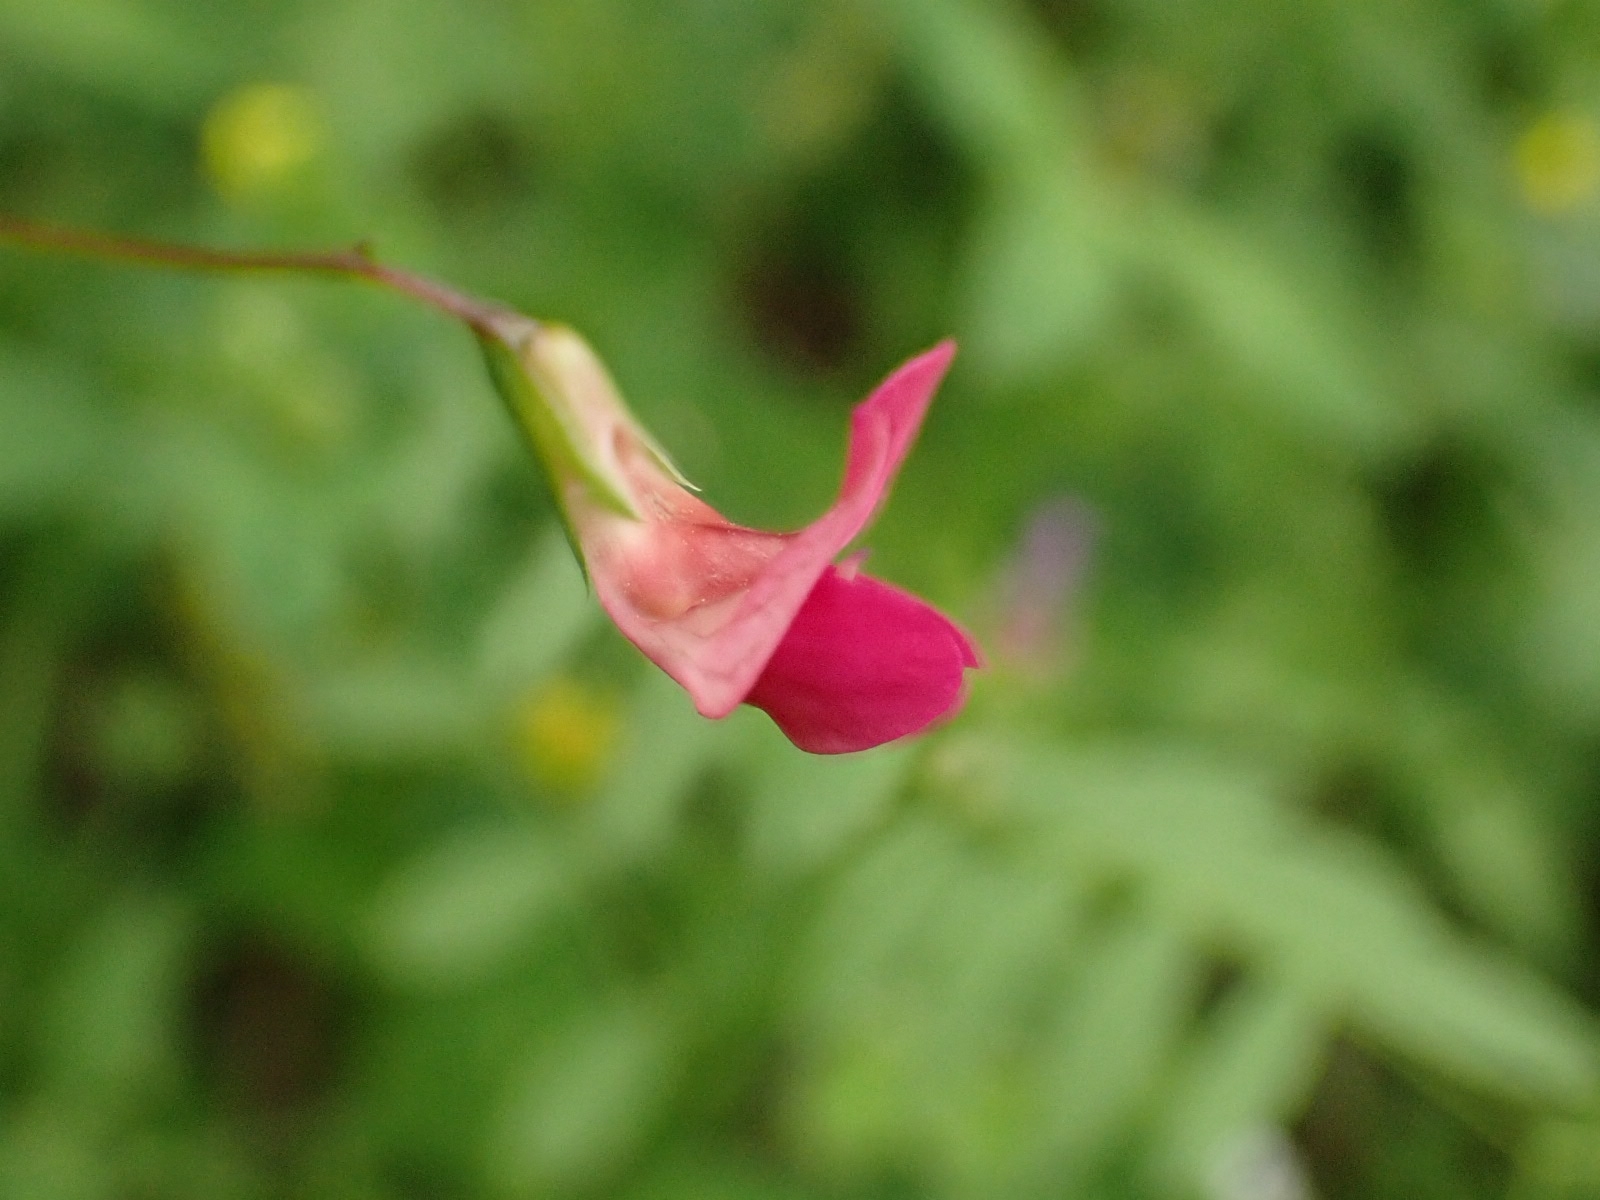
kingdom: Plantae
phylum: Tracheophyta
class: Magnoliopsida
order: Fabales
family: Fabaceae
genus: Lathyrus
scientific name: Lathyrus nissolia
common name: Grass vetchling
